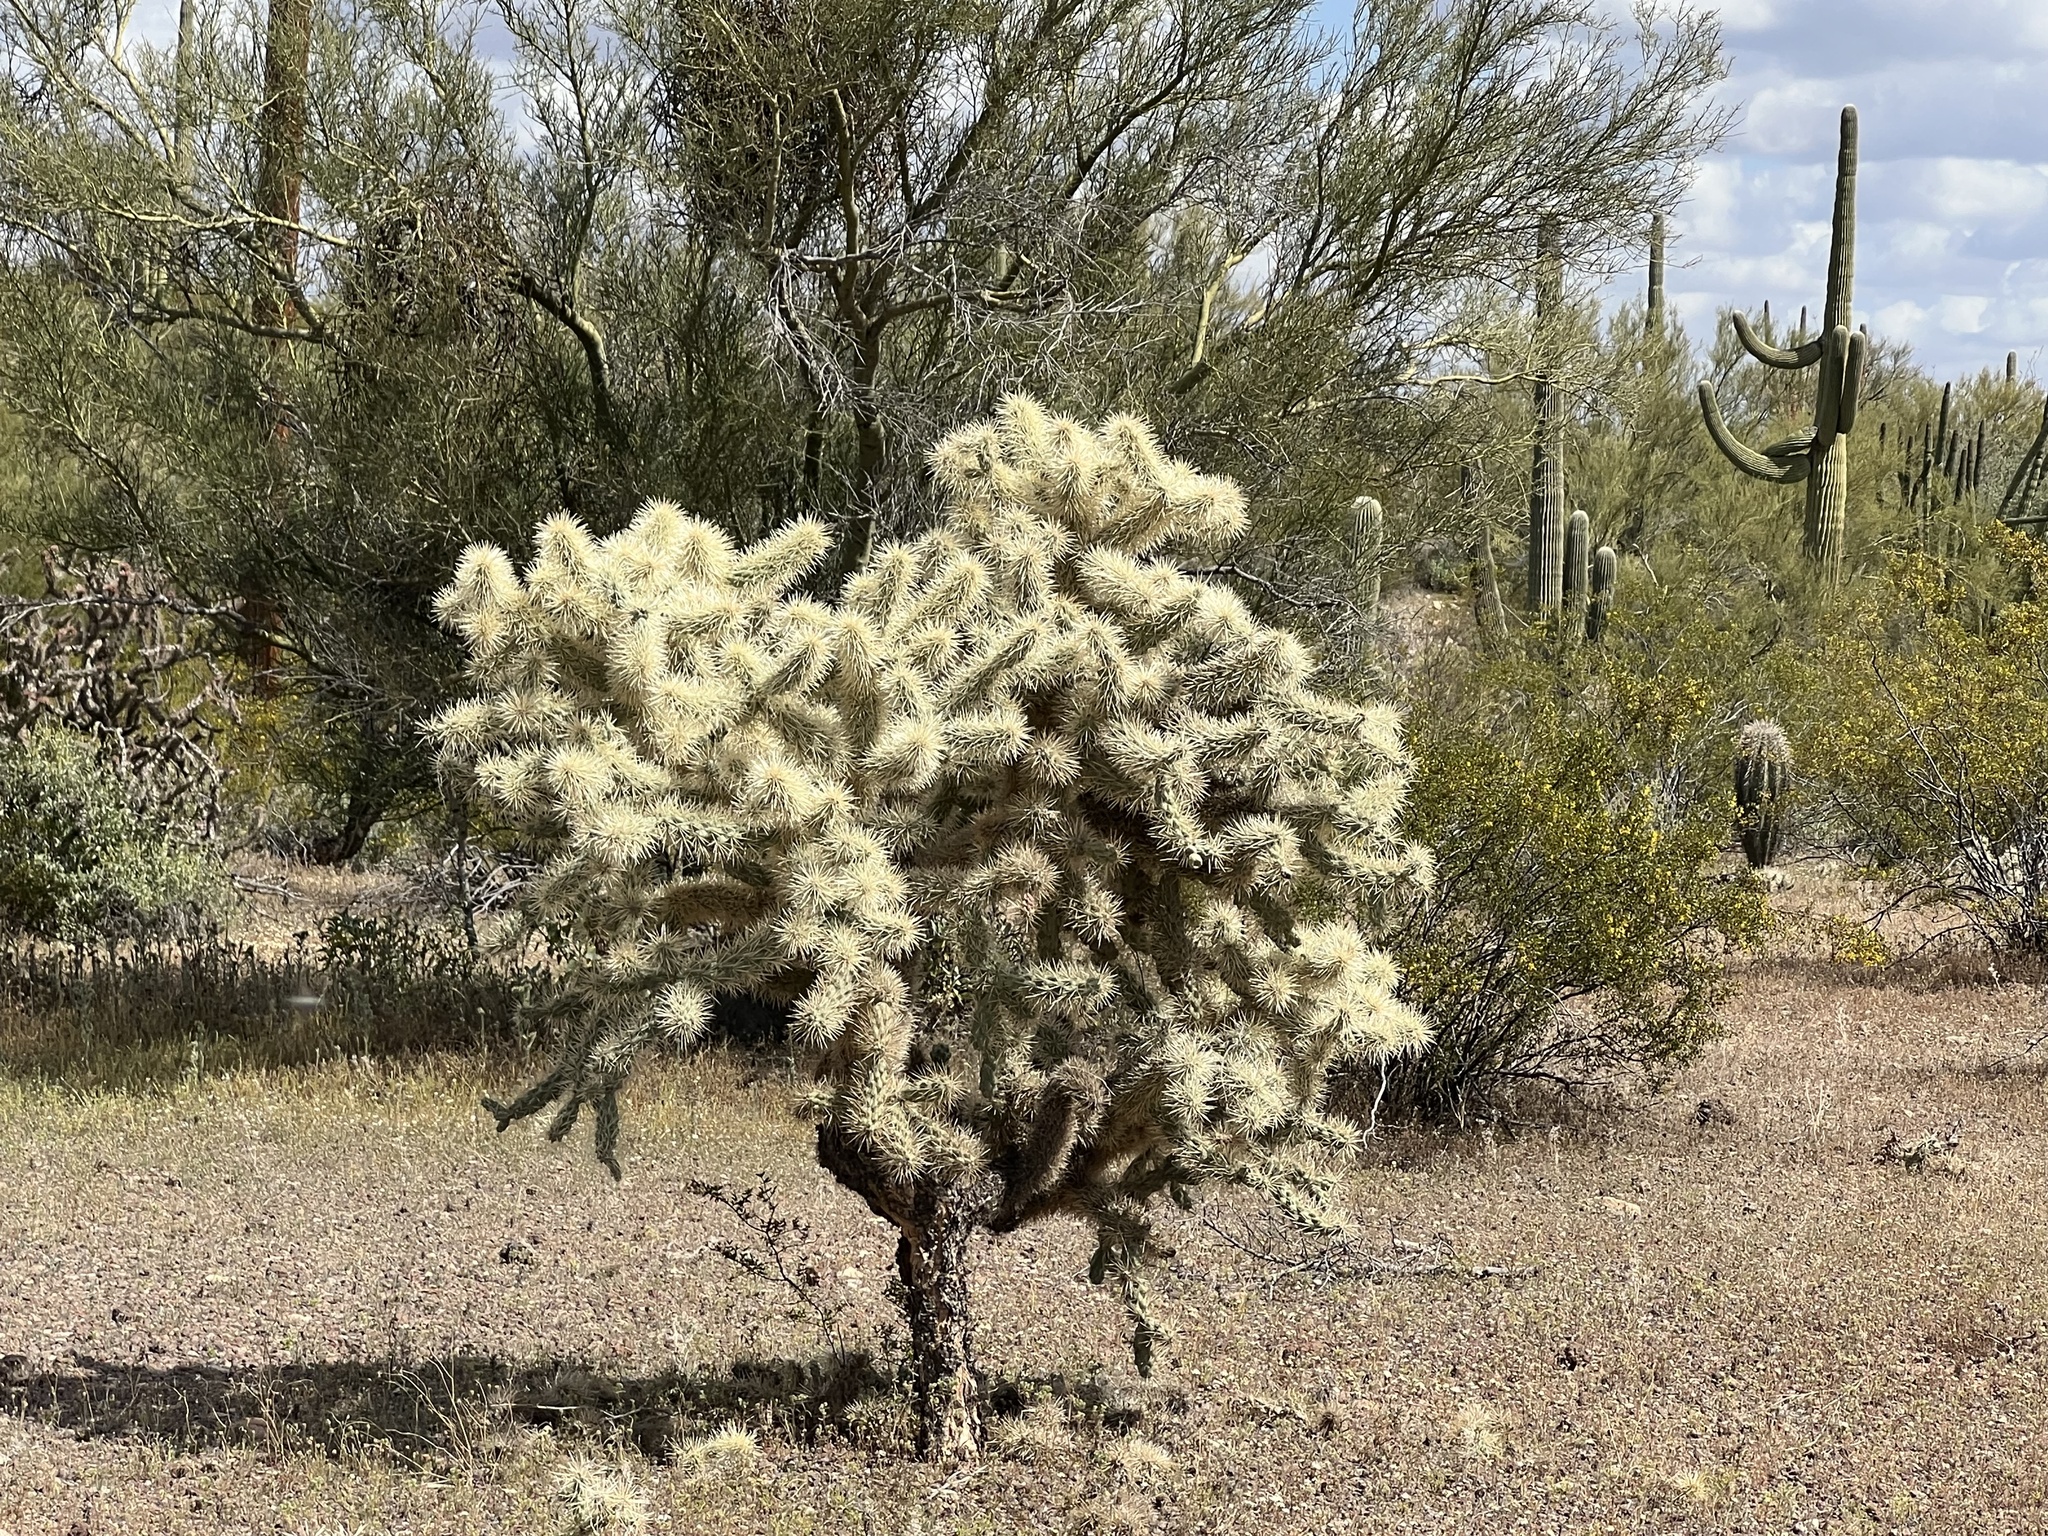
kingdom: Plantae
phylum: Tracheophyta
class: Magnoliopsida
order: Caryophyllales
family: Cactaceae
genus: Cylindropuntia
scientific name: Cylindropuntia fulgida
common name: Jumping cholla
